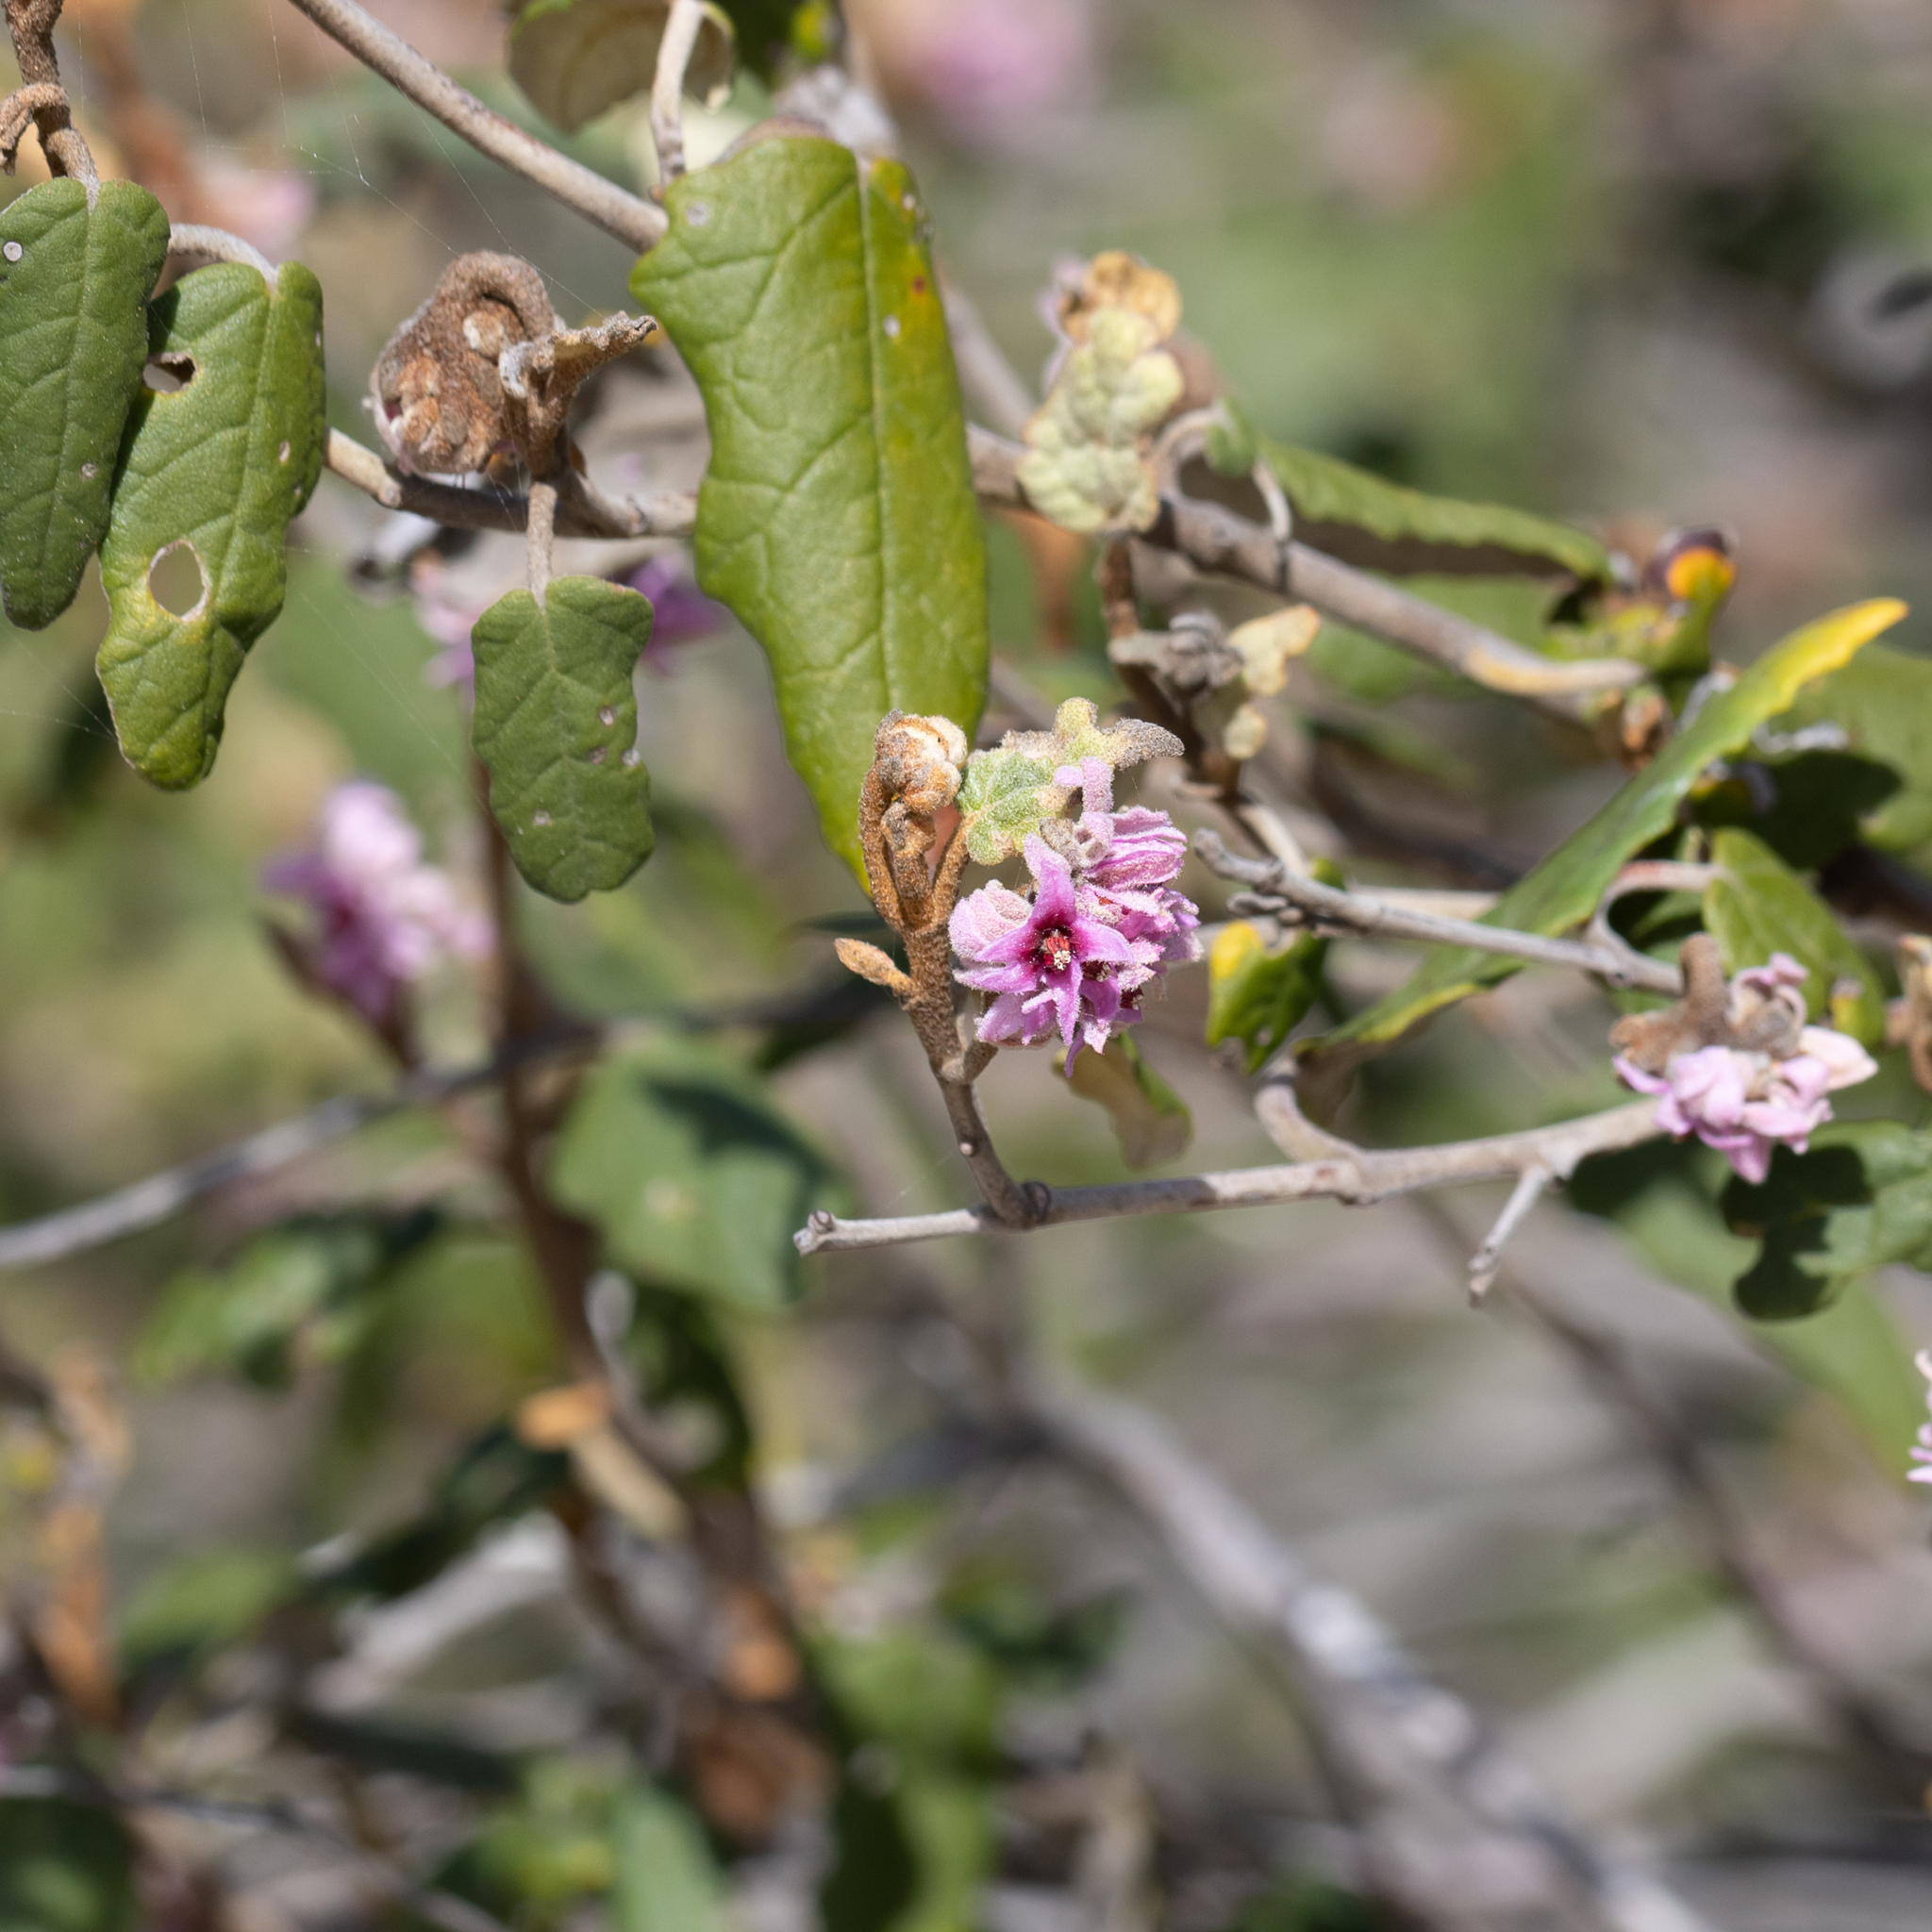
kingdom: Plantae
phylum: Tracheophyta
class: Magnoliopsida
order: Malvales
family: Malvaceae
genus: Lasiopetalum
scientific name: Lasiopetalum discolor
